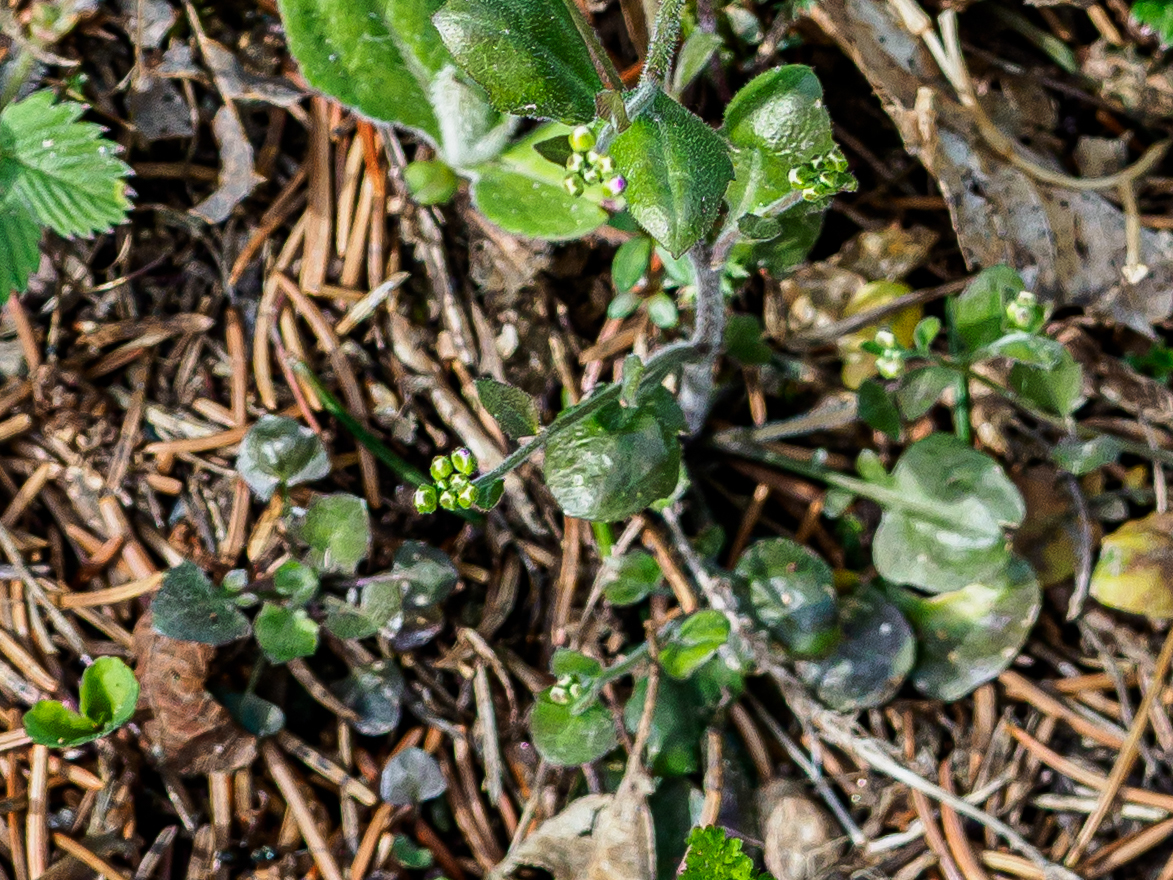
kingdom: Plantae
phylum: Tracheophyta
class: Magnoliopsida
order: Brassicales
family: Brassicaceae
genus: Arabidopsis
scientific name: Arabidopsis halleri
